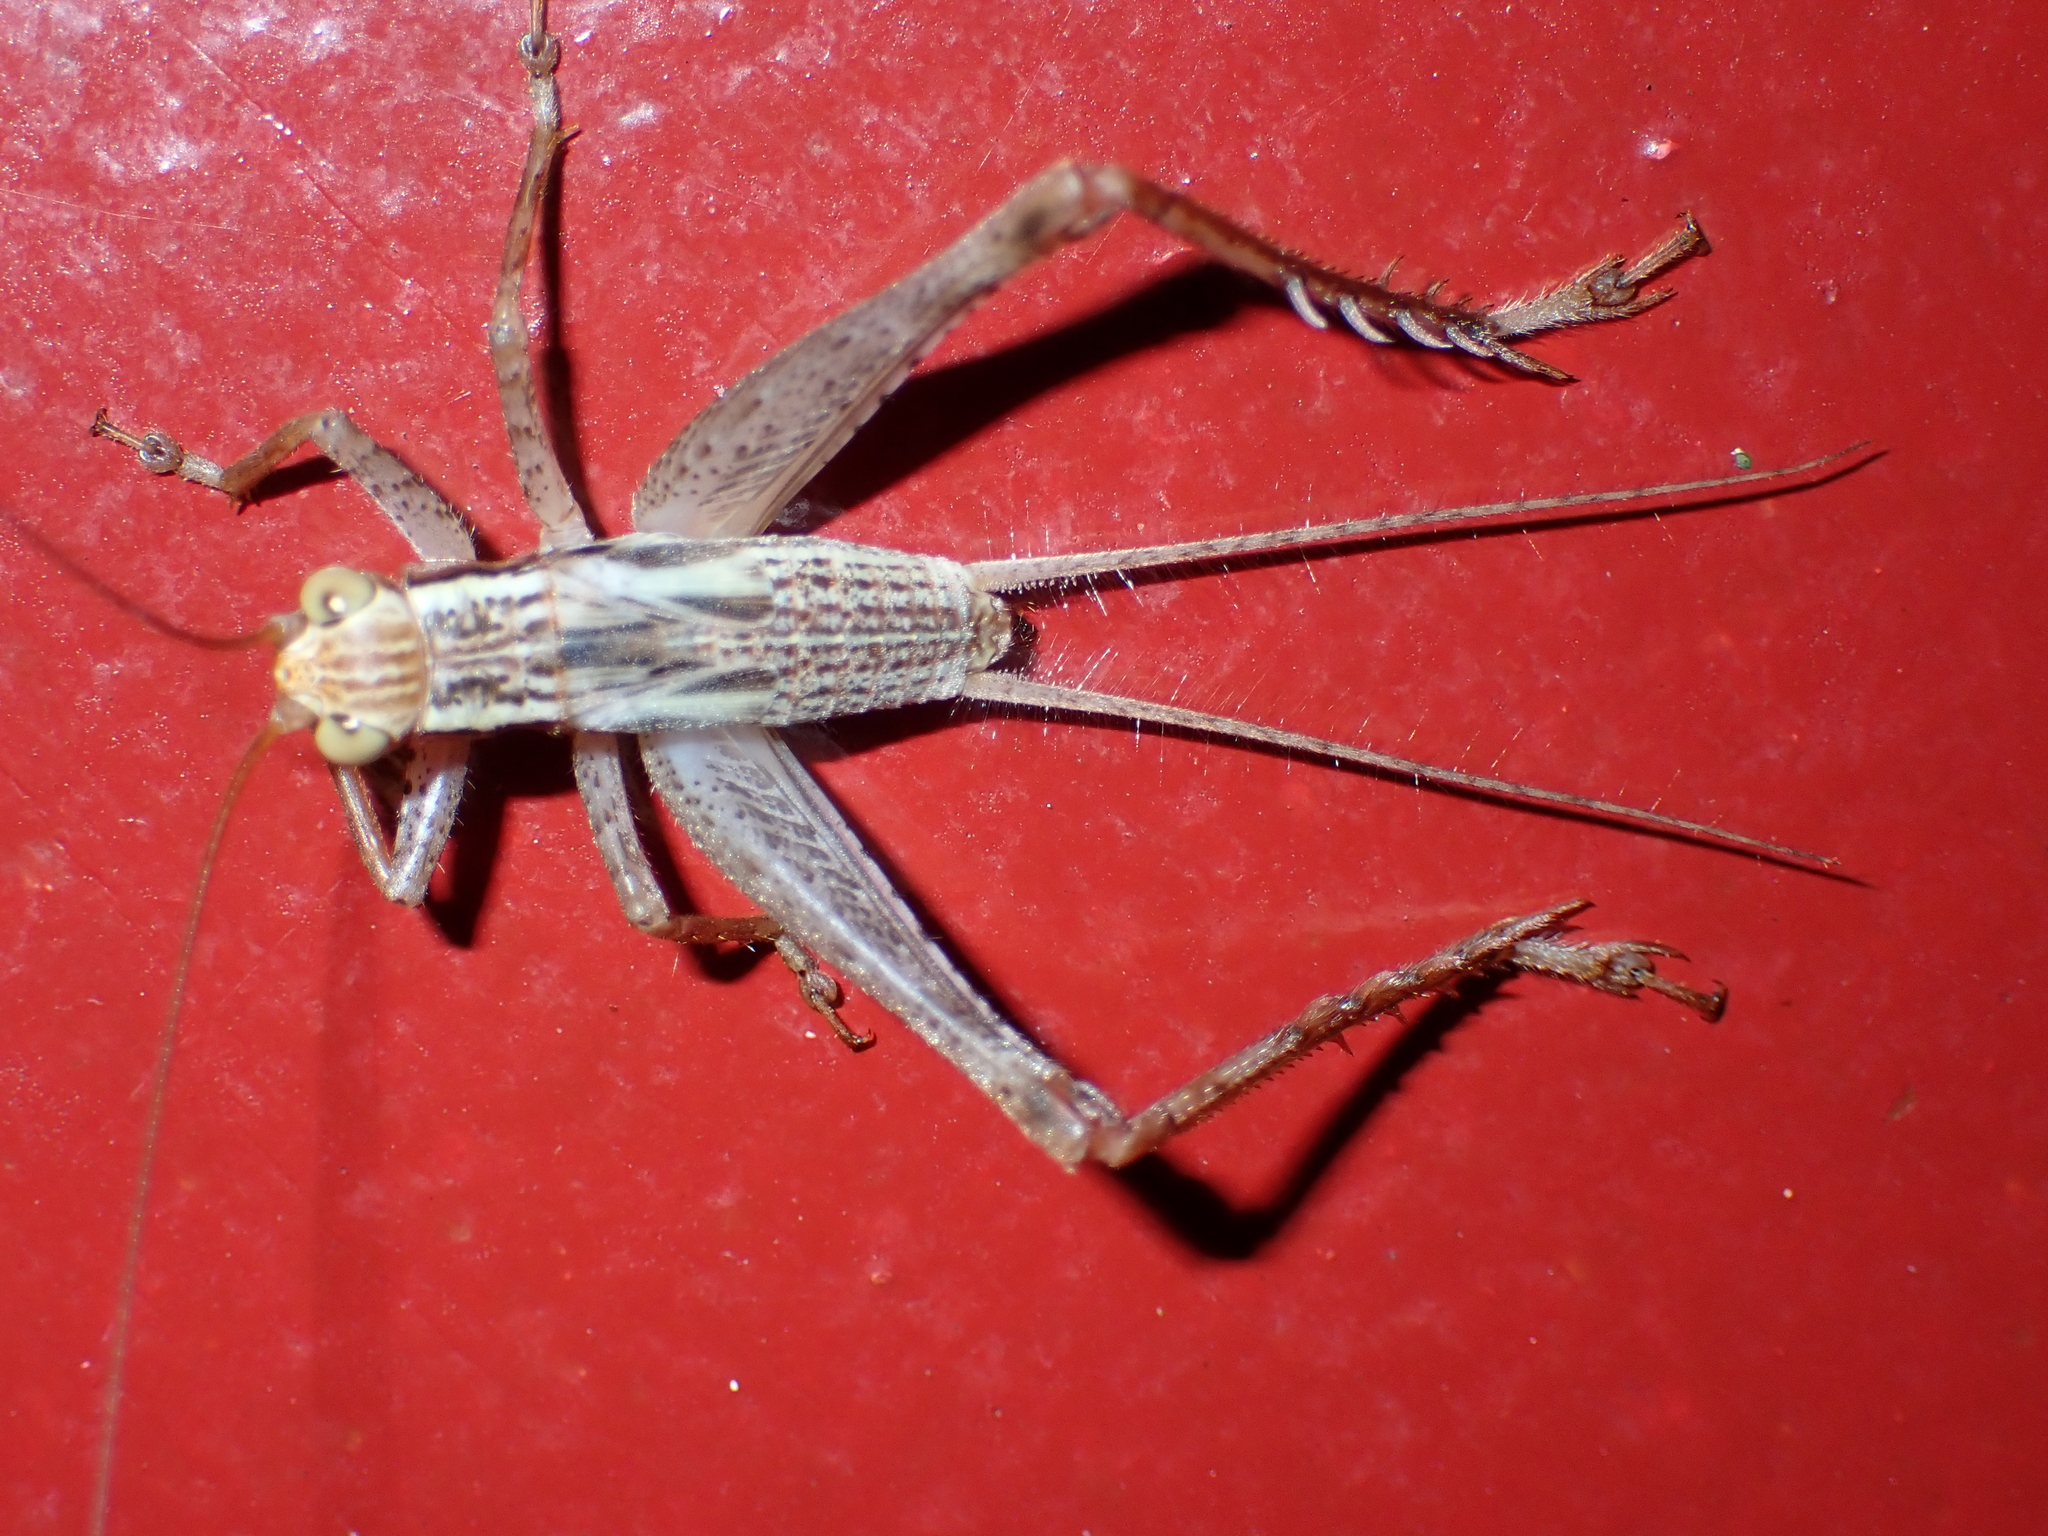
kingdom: Animalia
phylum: Arthropoda
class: Insecta
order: Orthoptera
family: Gryllidae
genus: Cardiodactylus
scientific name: Cardiodactylus novaeguineae
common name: Sad cricket
